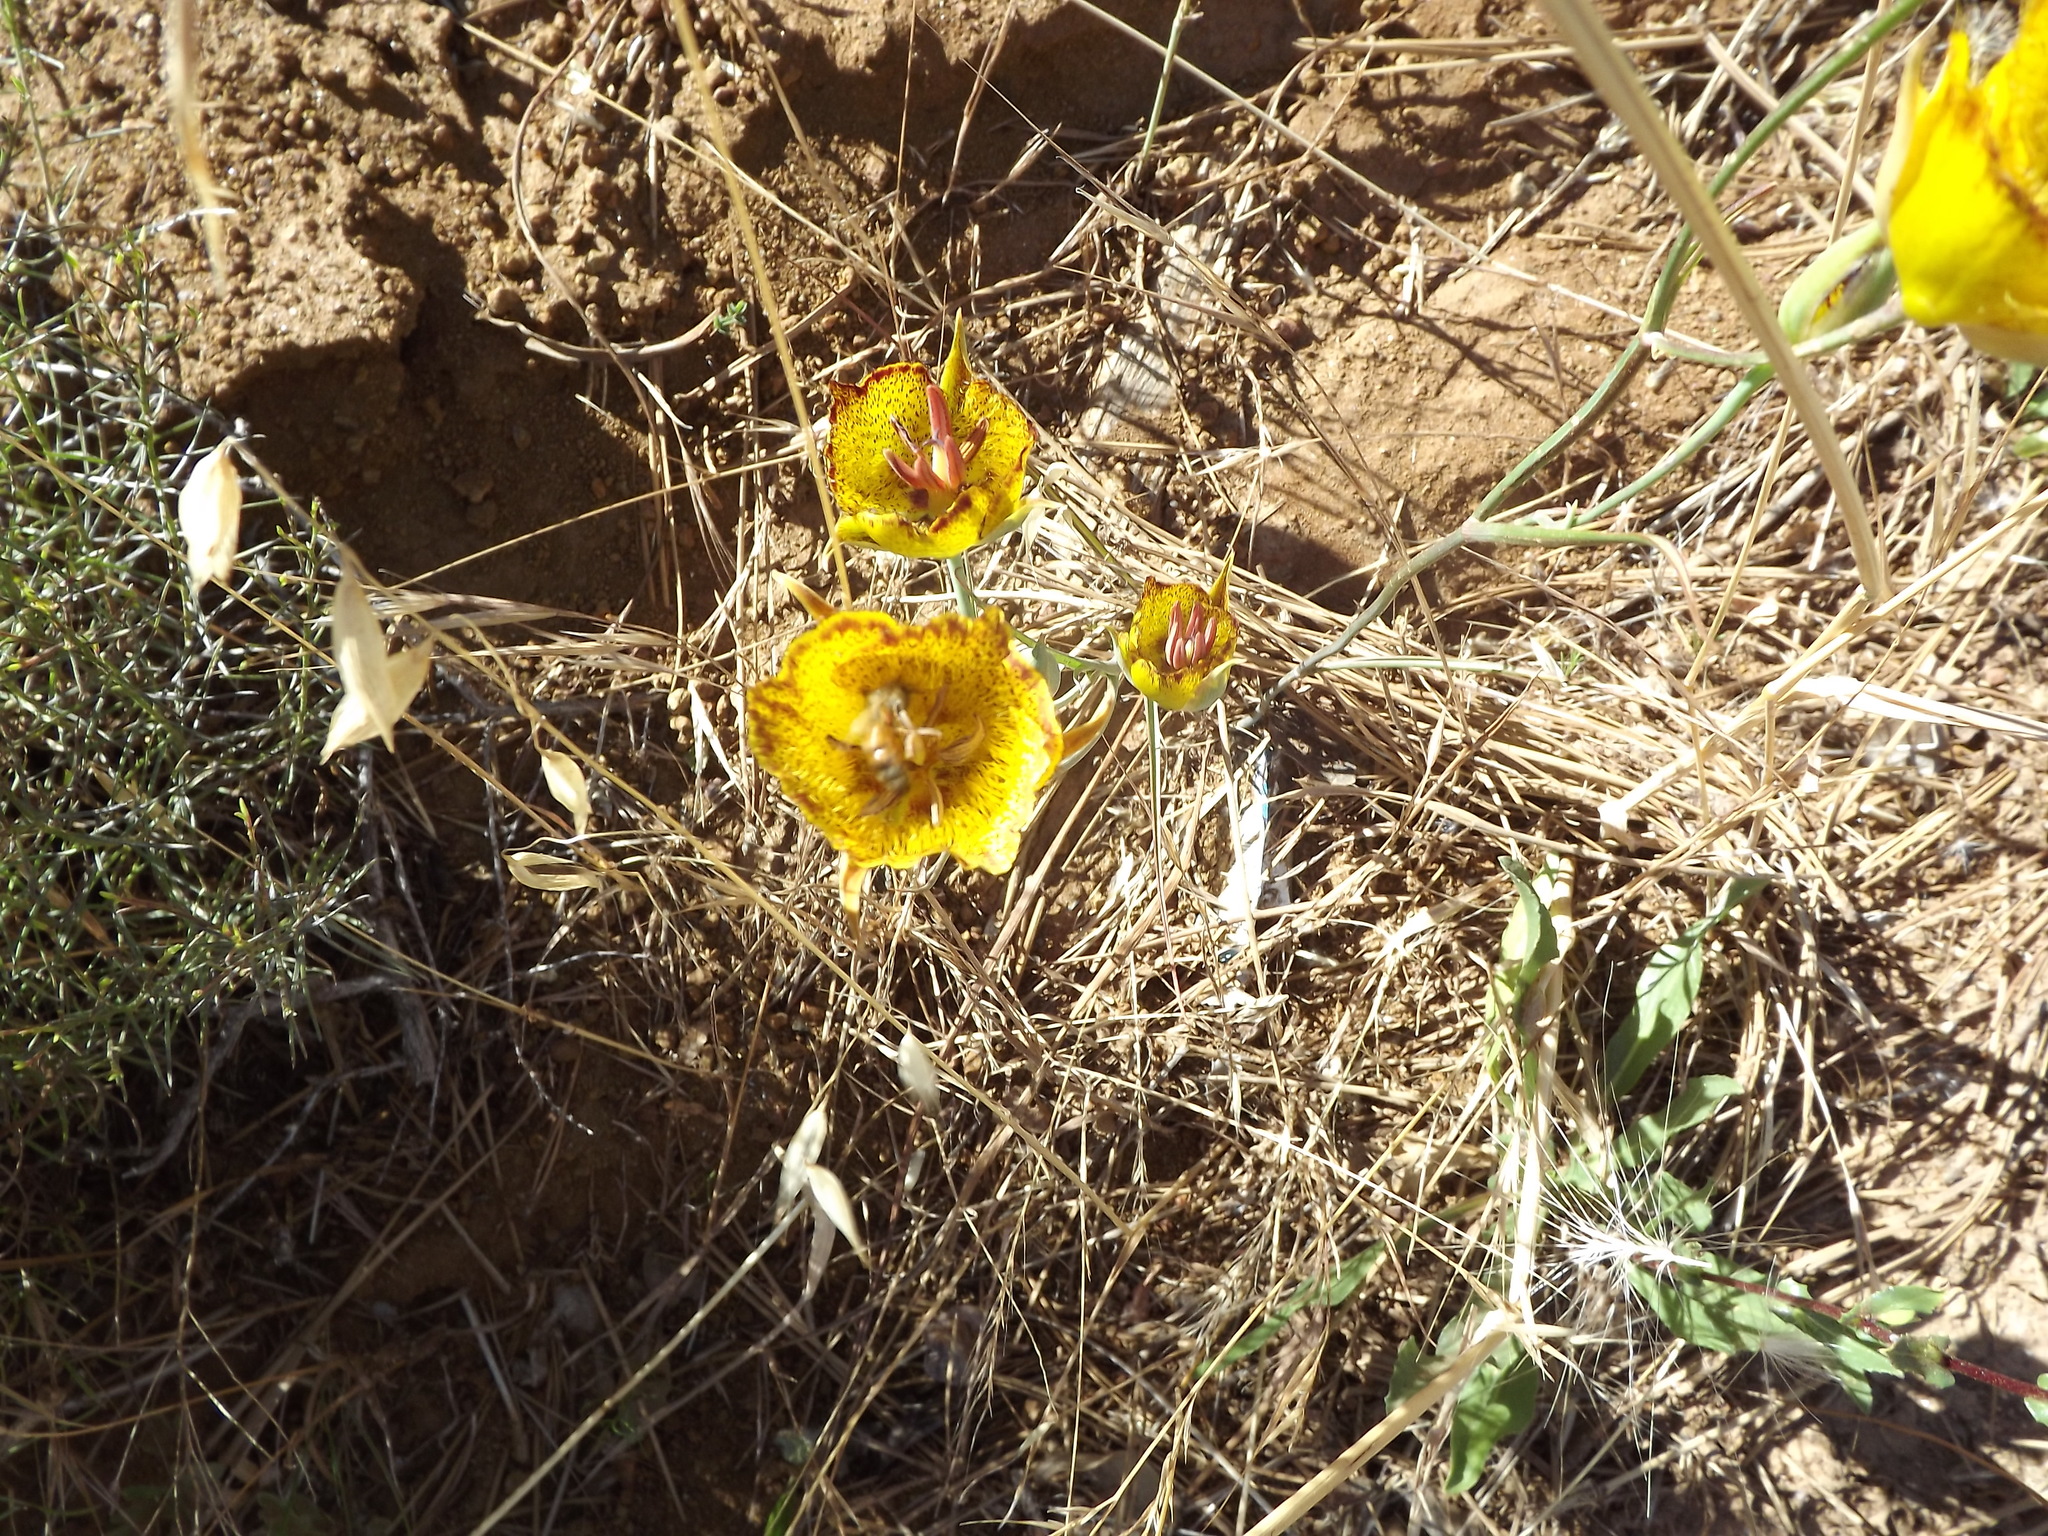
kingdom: Plantae
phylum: Tracheophyta
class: Liliopsida
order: Liliales
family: Liliaceae
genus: Calochortus
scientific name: Calochortus weedii
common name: Weed's mariposa-lily
